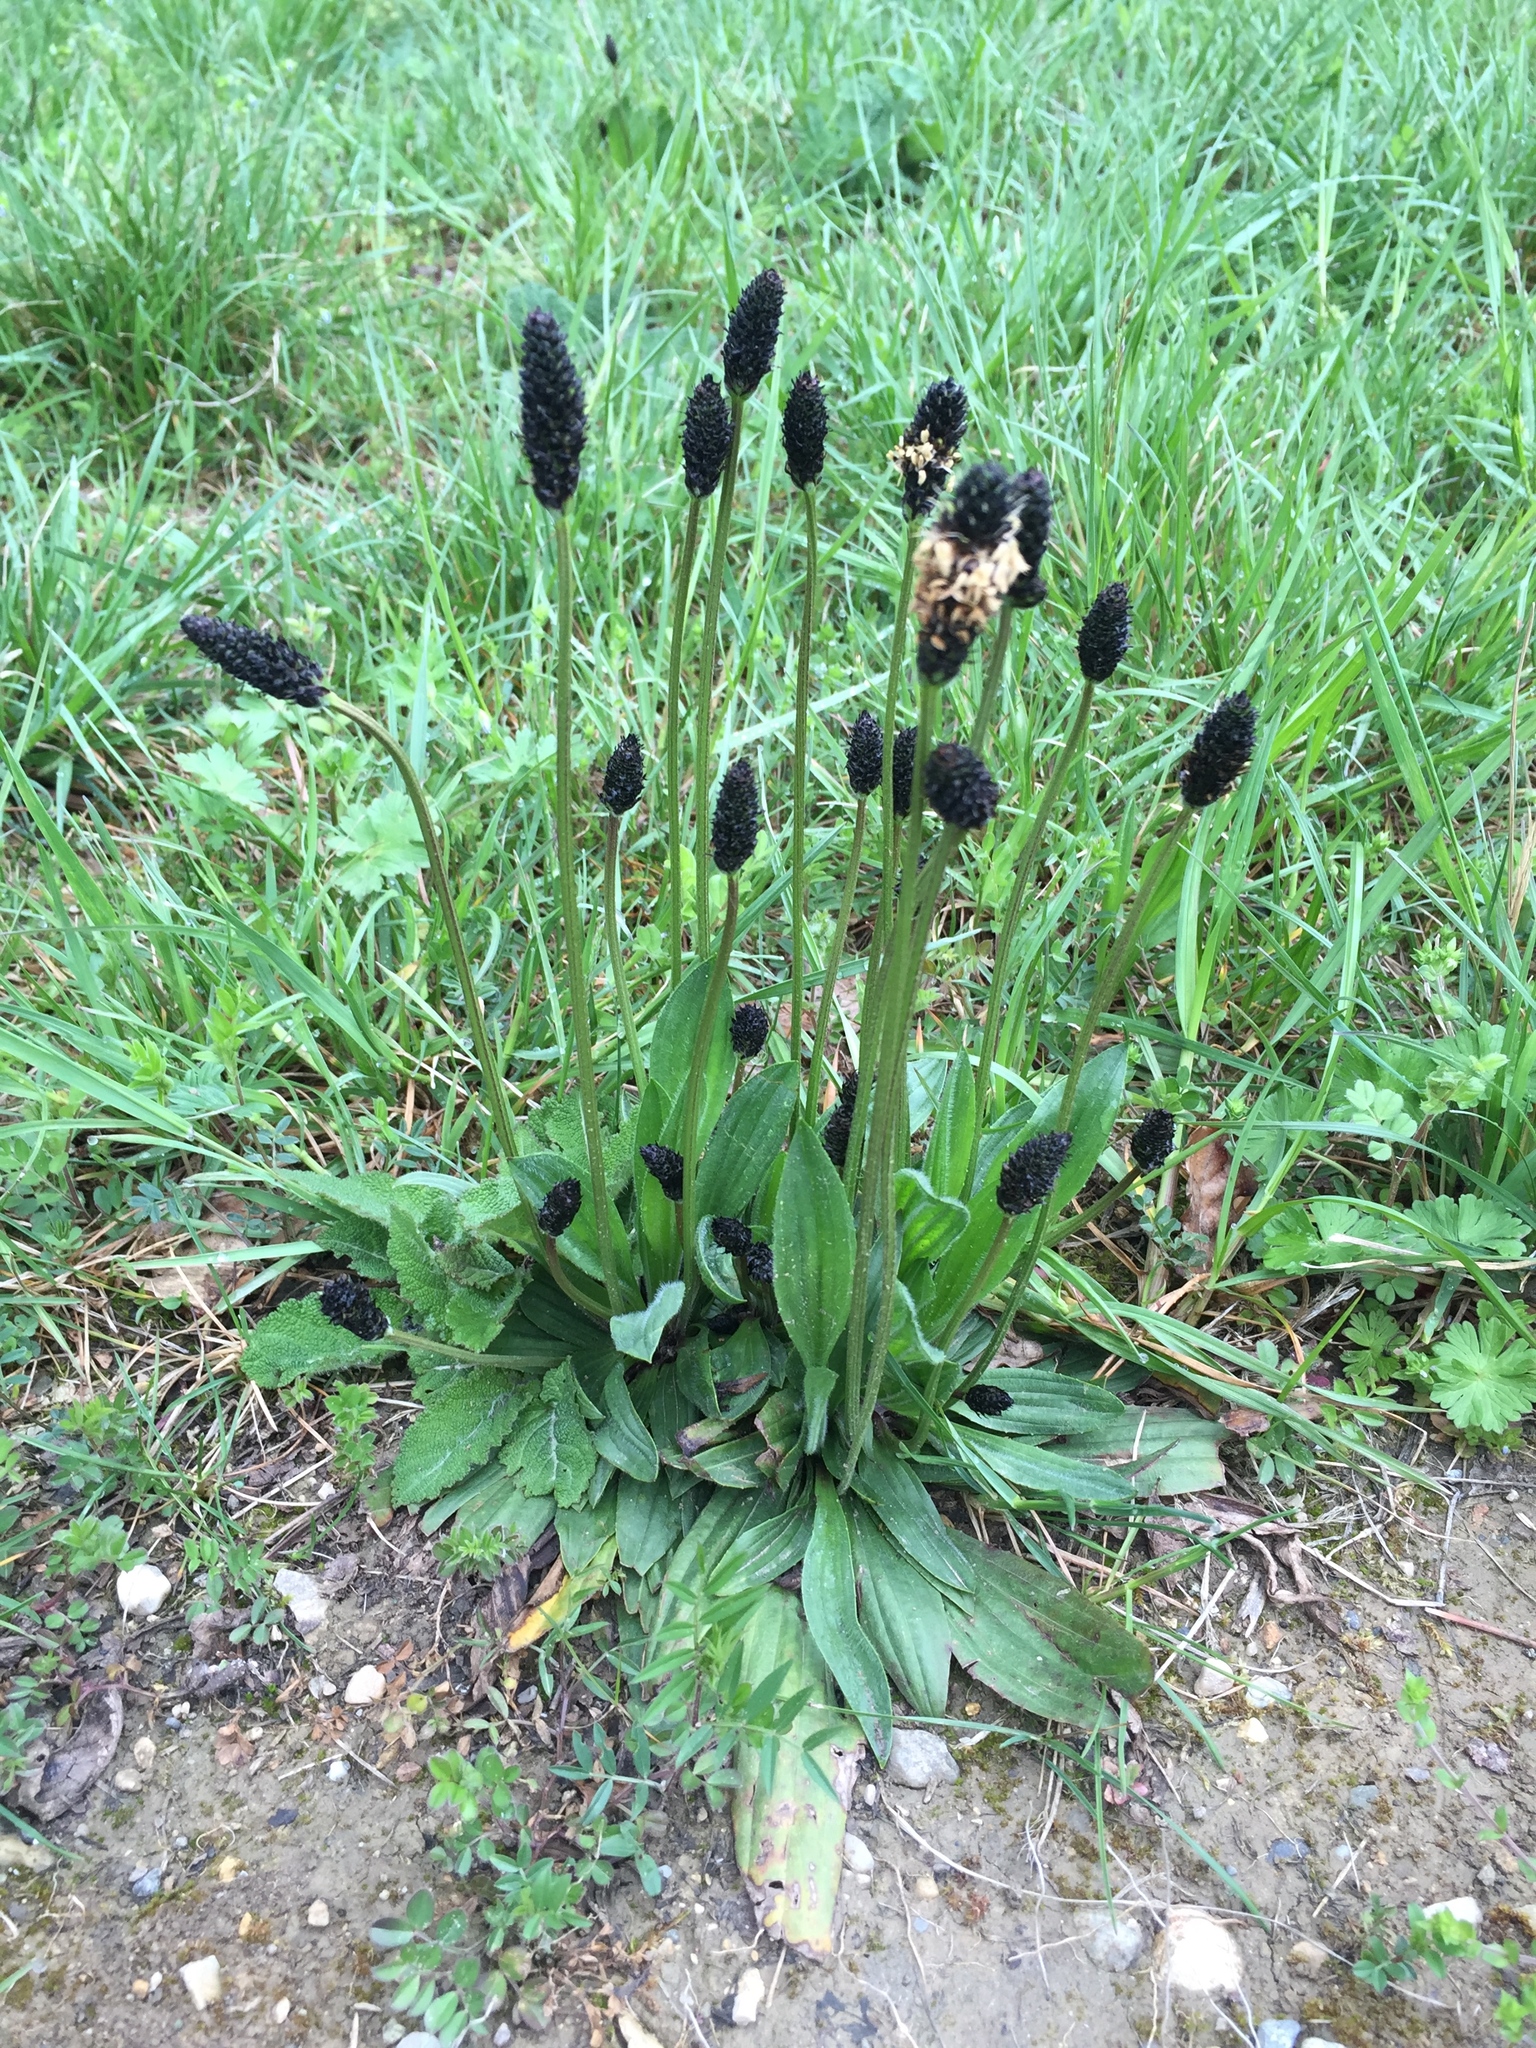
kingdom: Plantae
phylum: Tracheophyta
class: Magnoliopsida
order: Lamiales
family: Plantaginaceae
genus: Plantago
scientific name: Plantago lanceolata
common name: Ribwort plantain
